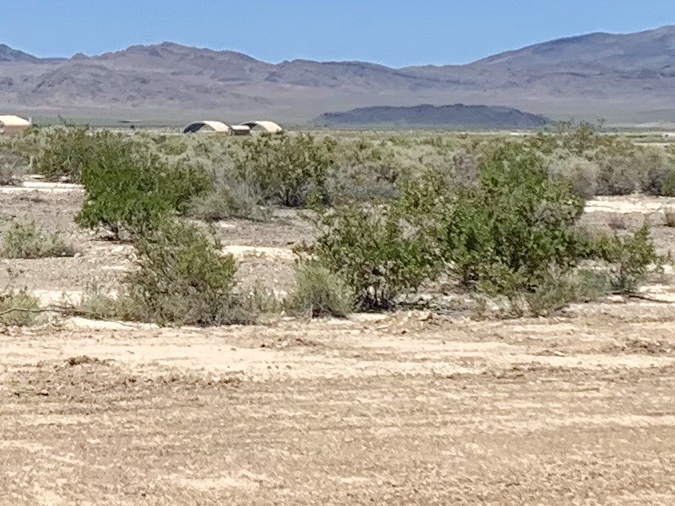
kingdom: Plantae
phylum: Tracheophyta
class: Magnoliopsida
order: Zygophyllales
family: Zygophyllaceae
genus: Larrea
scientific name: Larrea tridentata
